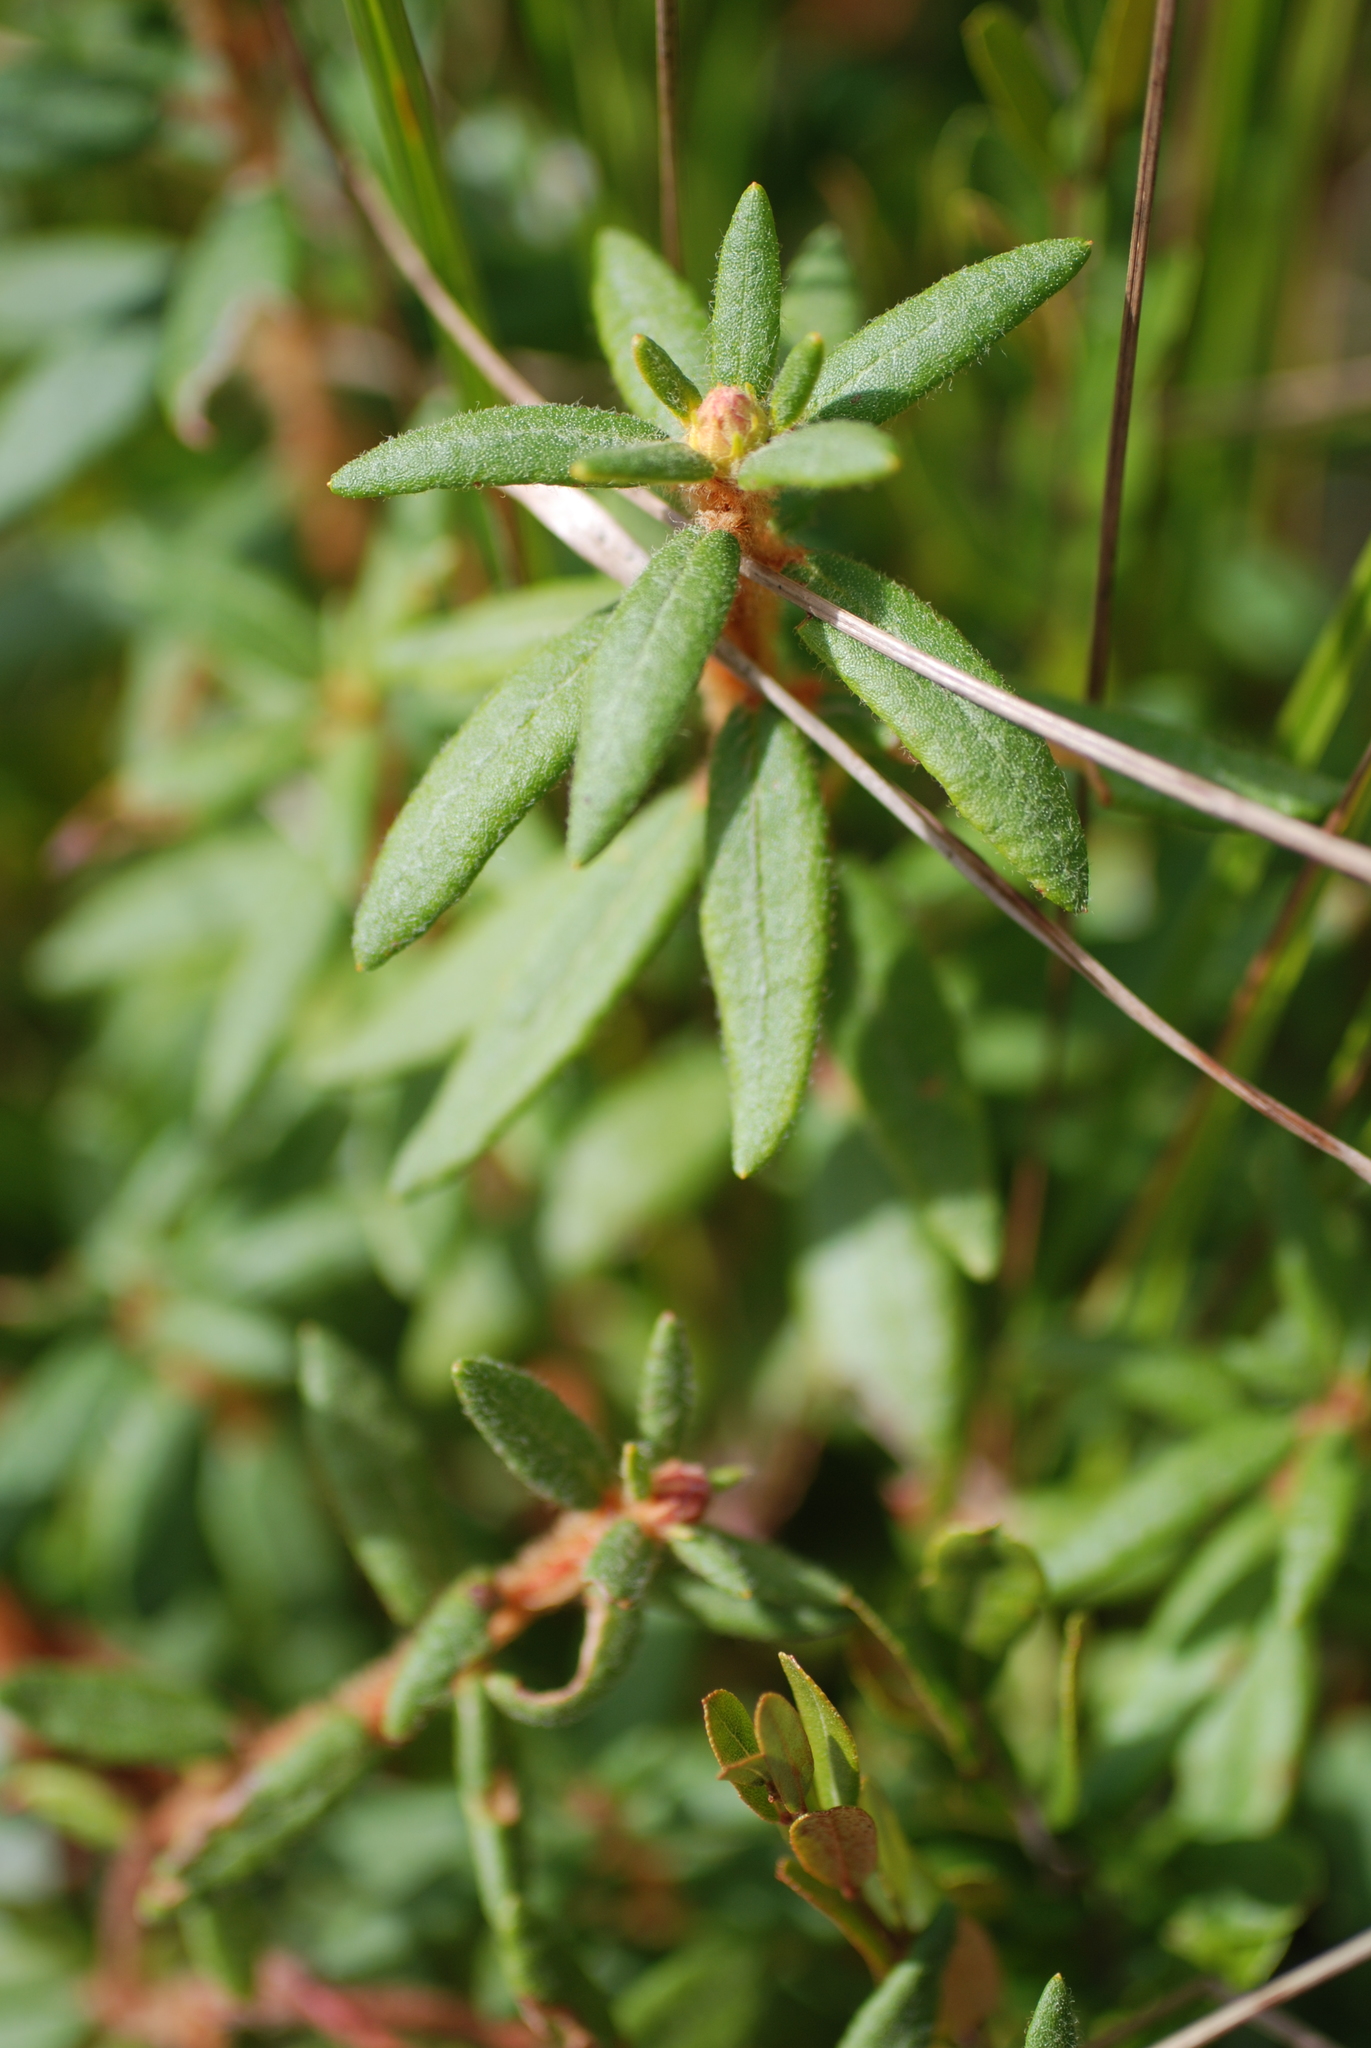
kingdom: Plantae
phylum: Tracheophyta
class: Magnoliopsida
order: Ericales
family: Ericaceae
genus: Rhododendron
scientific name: Rhododendron groenlandicum
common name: Bog labrador tea
